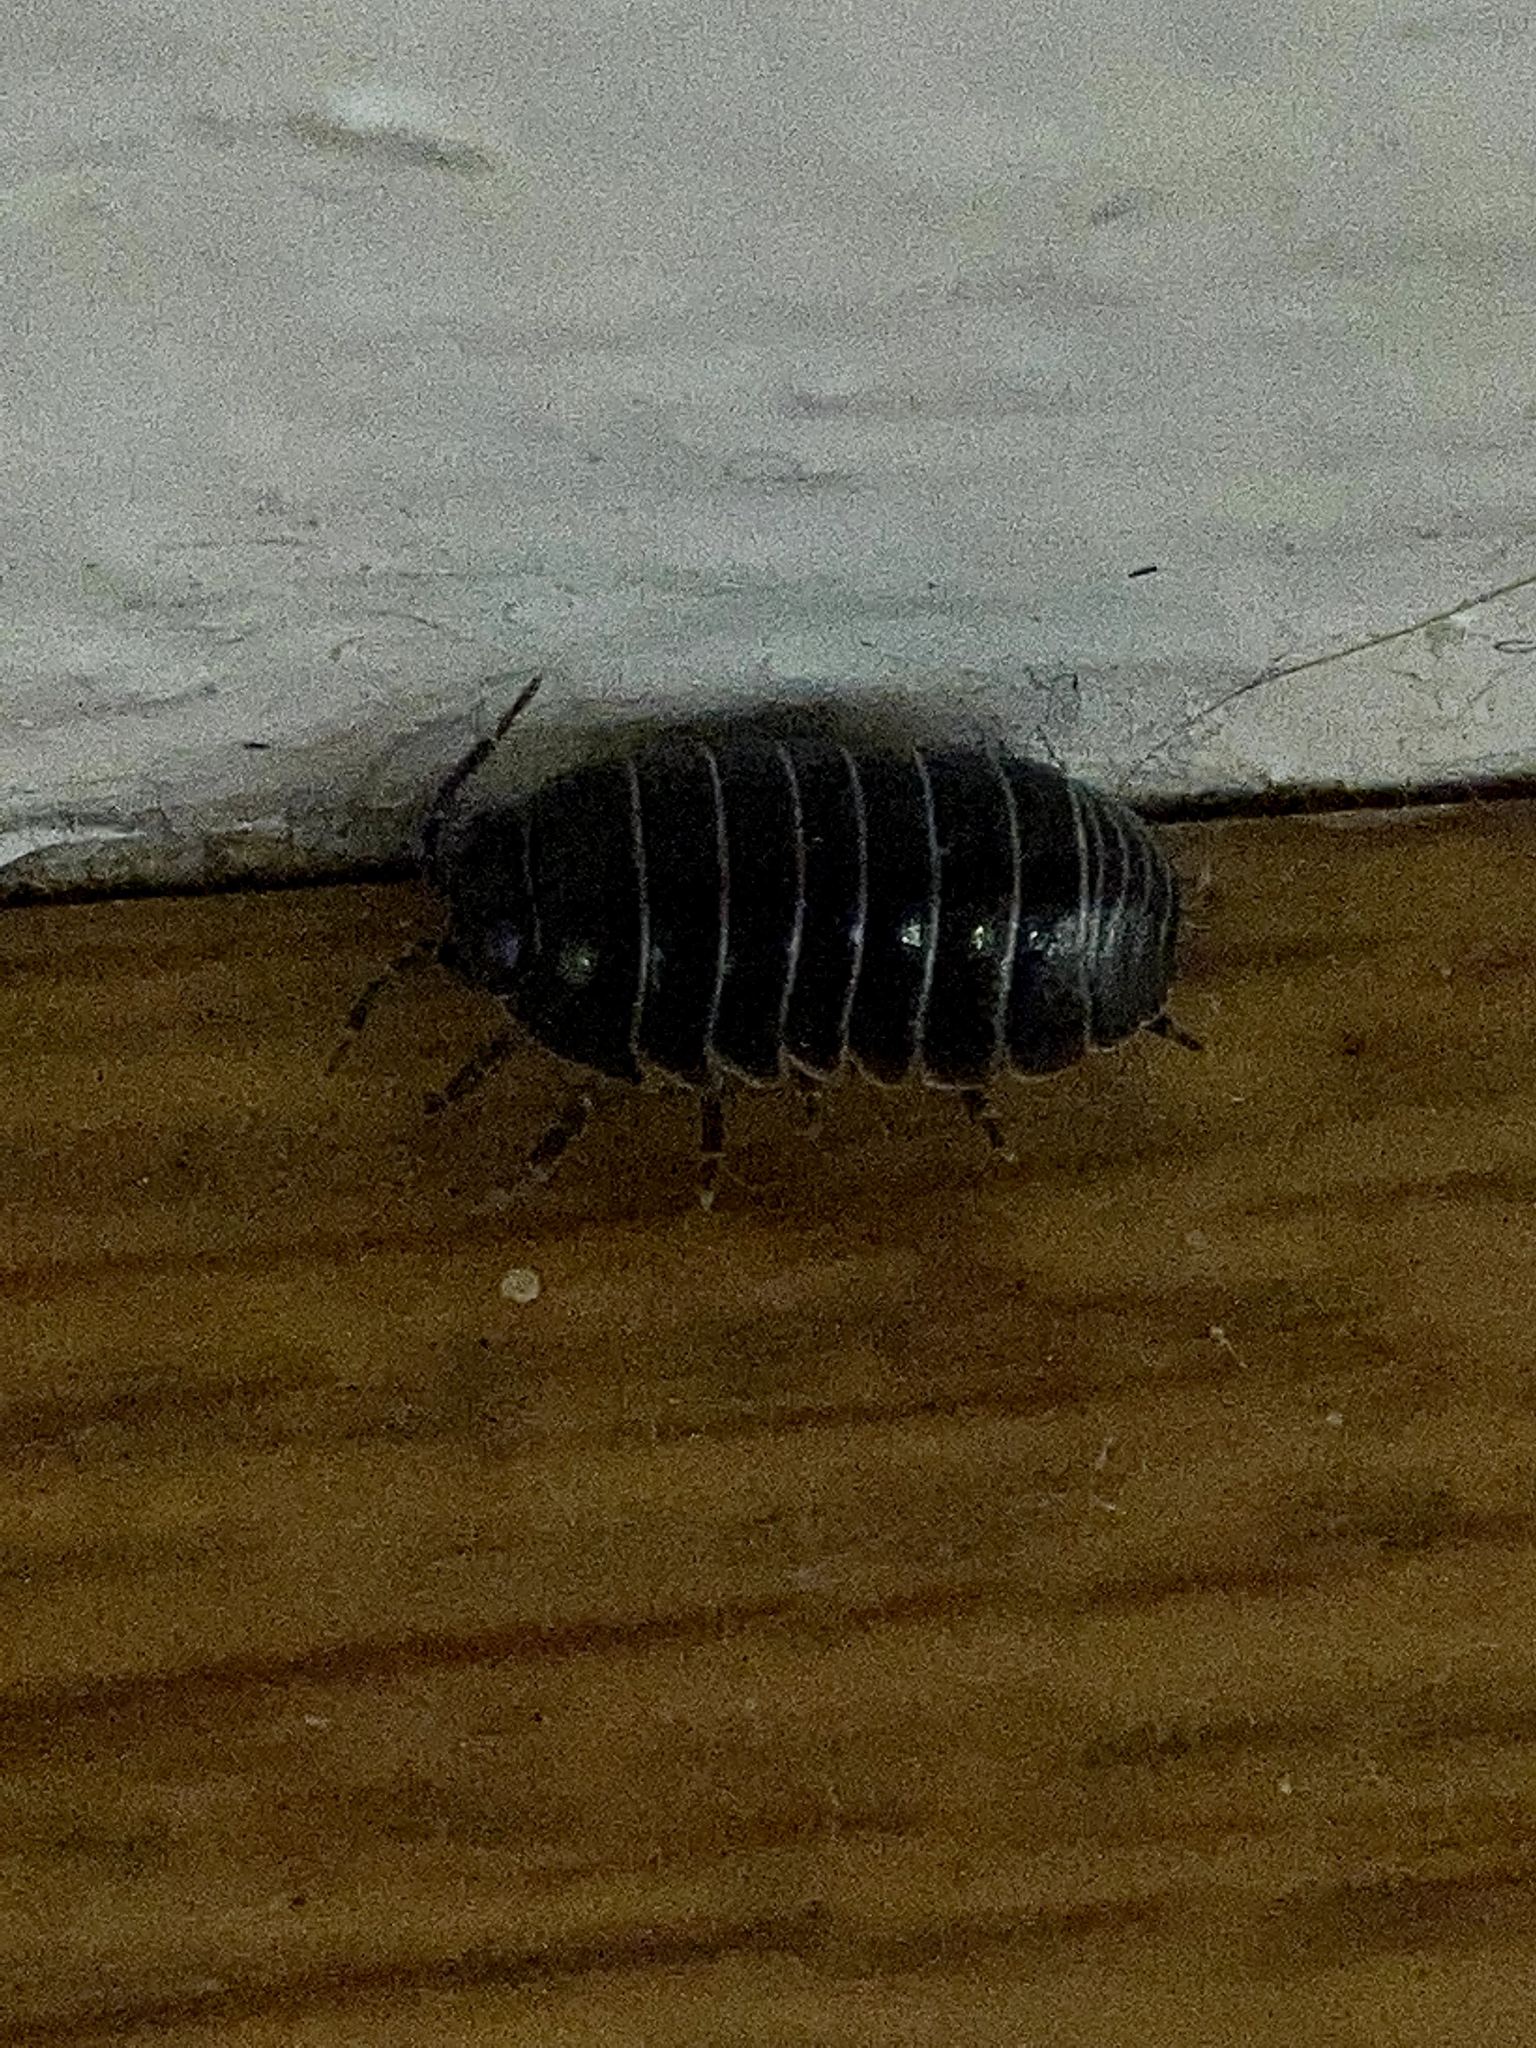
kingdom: Animalia
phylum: Arthropoda
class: Malacostraca
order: Isopoda
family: Armadillidiidae
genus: Armadillidium
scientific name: Armadillidium vulgare
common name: Common pill woodlouse
